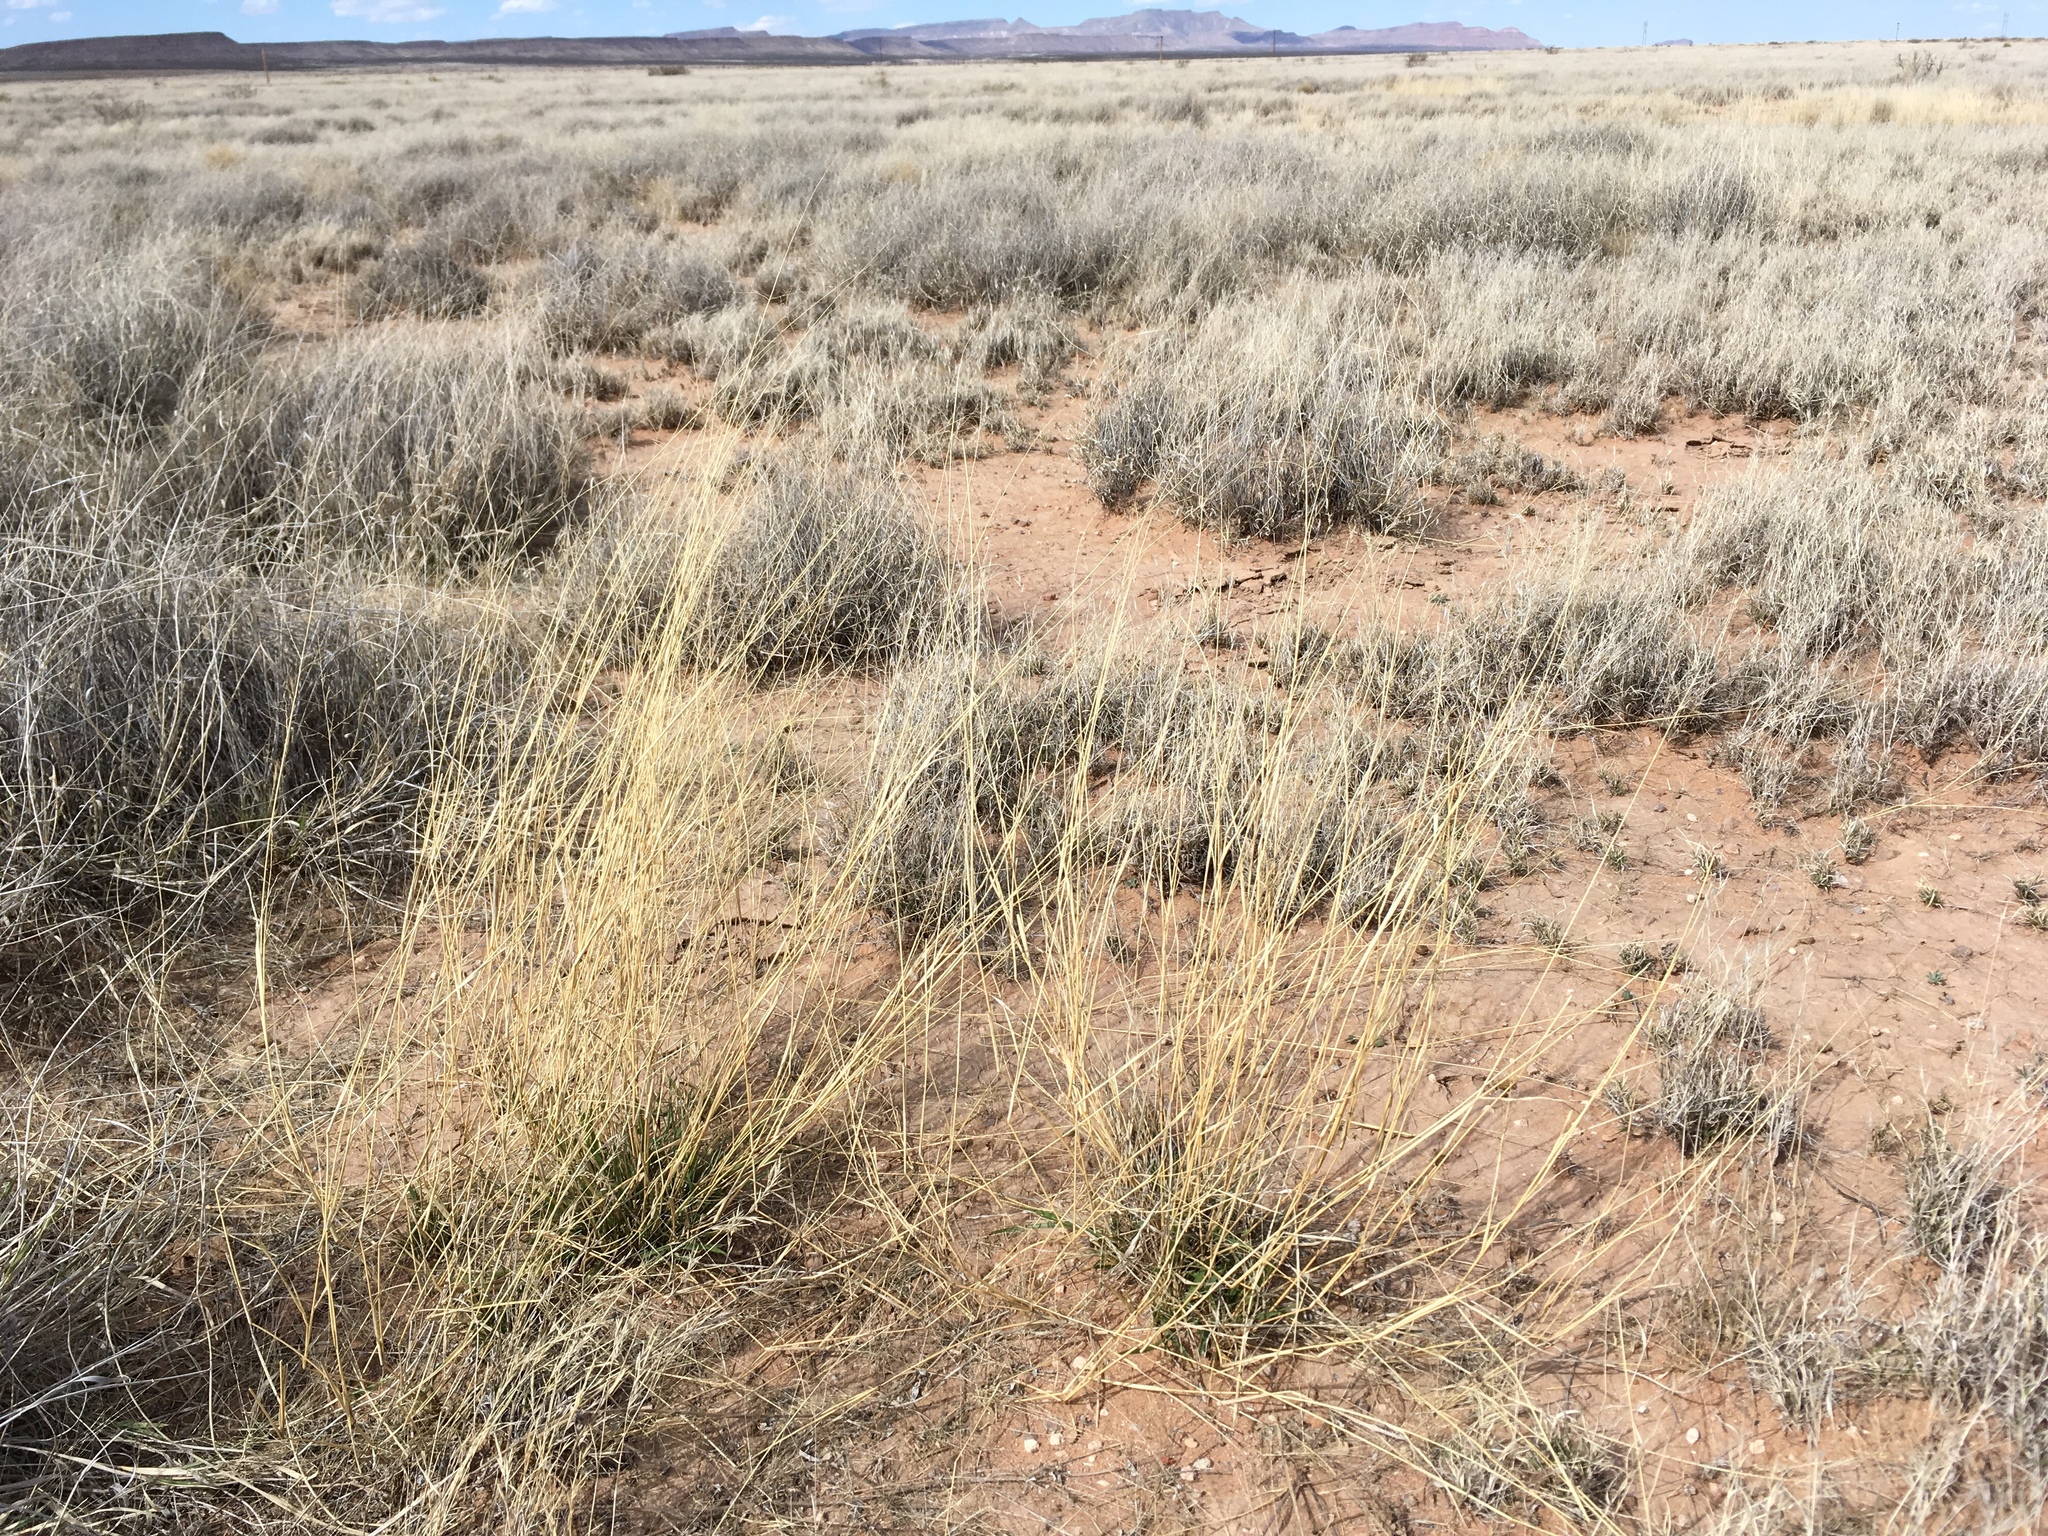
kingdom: Plantae
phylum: Tracheophyta
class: Liliopsida
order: Poales
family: Poaceae
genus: Eragrostis
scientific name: Eragrostis lehmanniana
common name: Lehmann lovegrass
